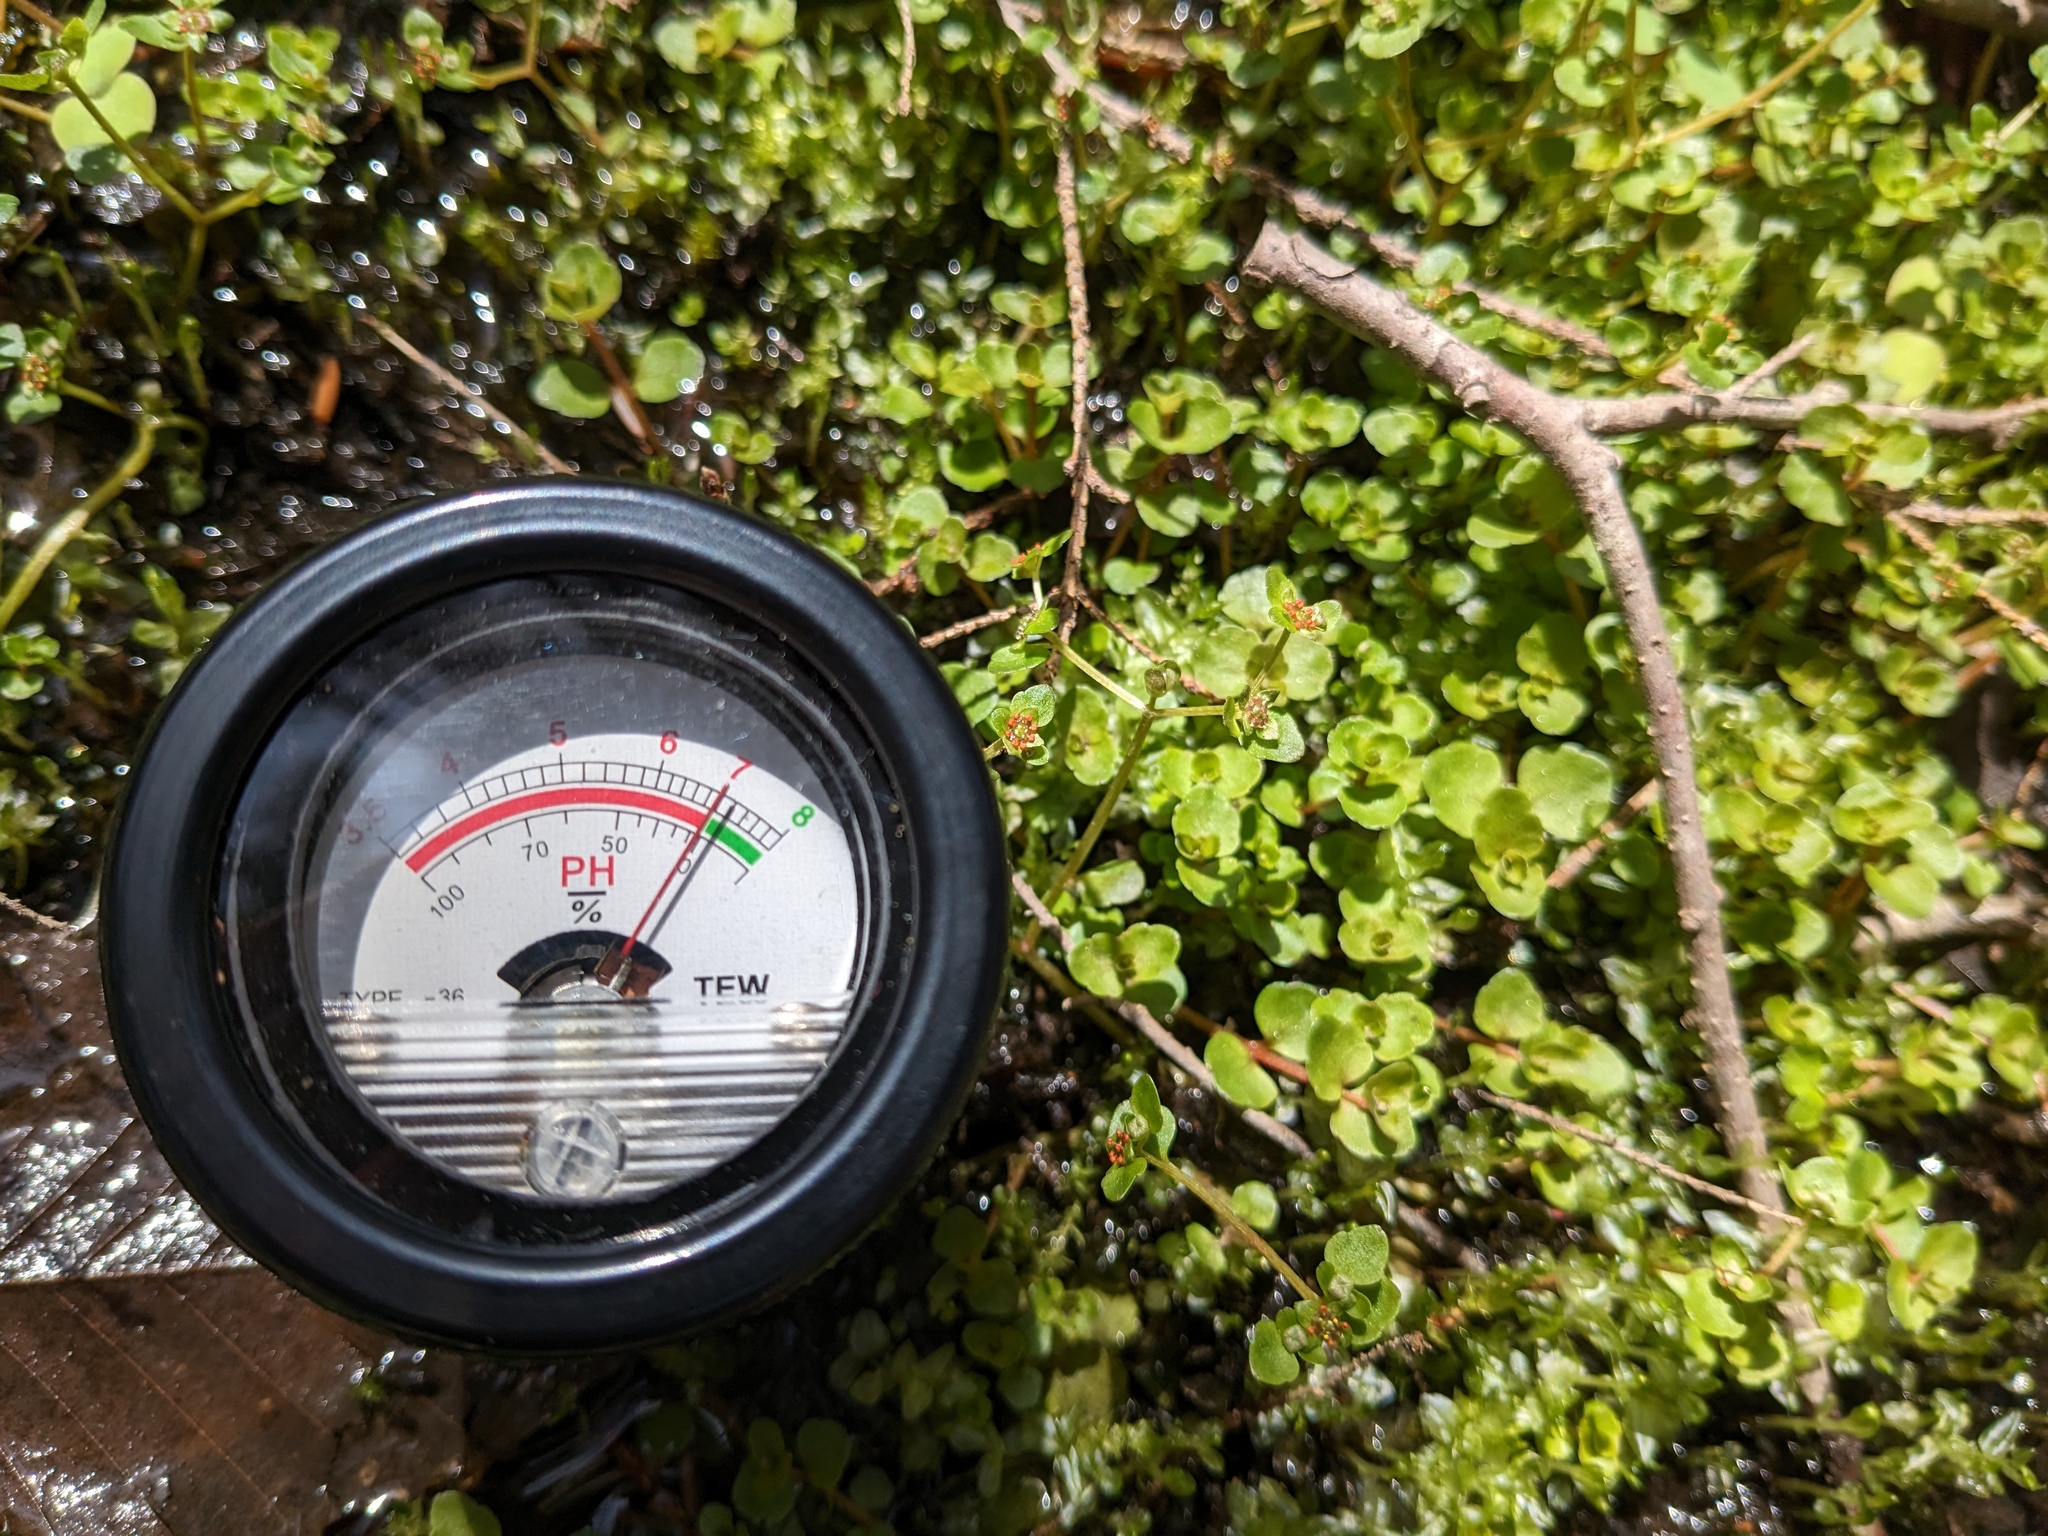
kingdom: Plantae
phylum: Tracheophyta
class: Magnoliopsida
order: Saxifragales
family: Saxifragaceae
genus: Chrysosplenium
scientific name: Chrysosplenium americanum
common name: American golden-saxifrage
